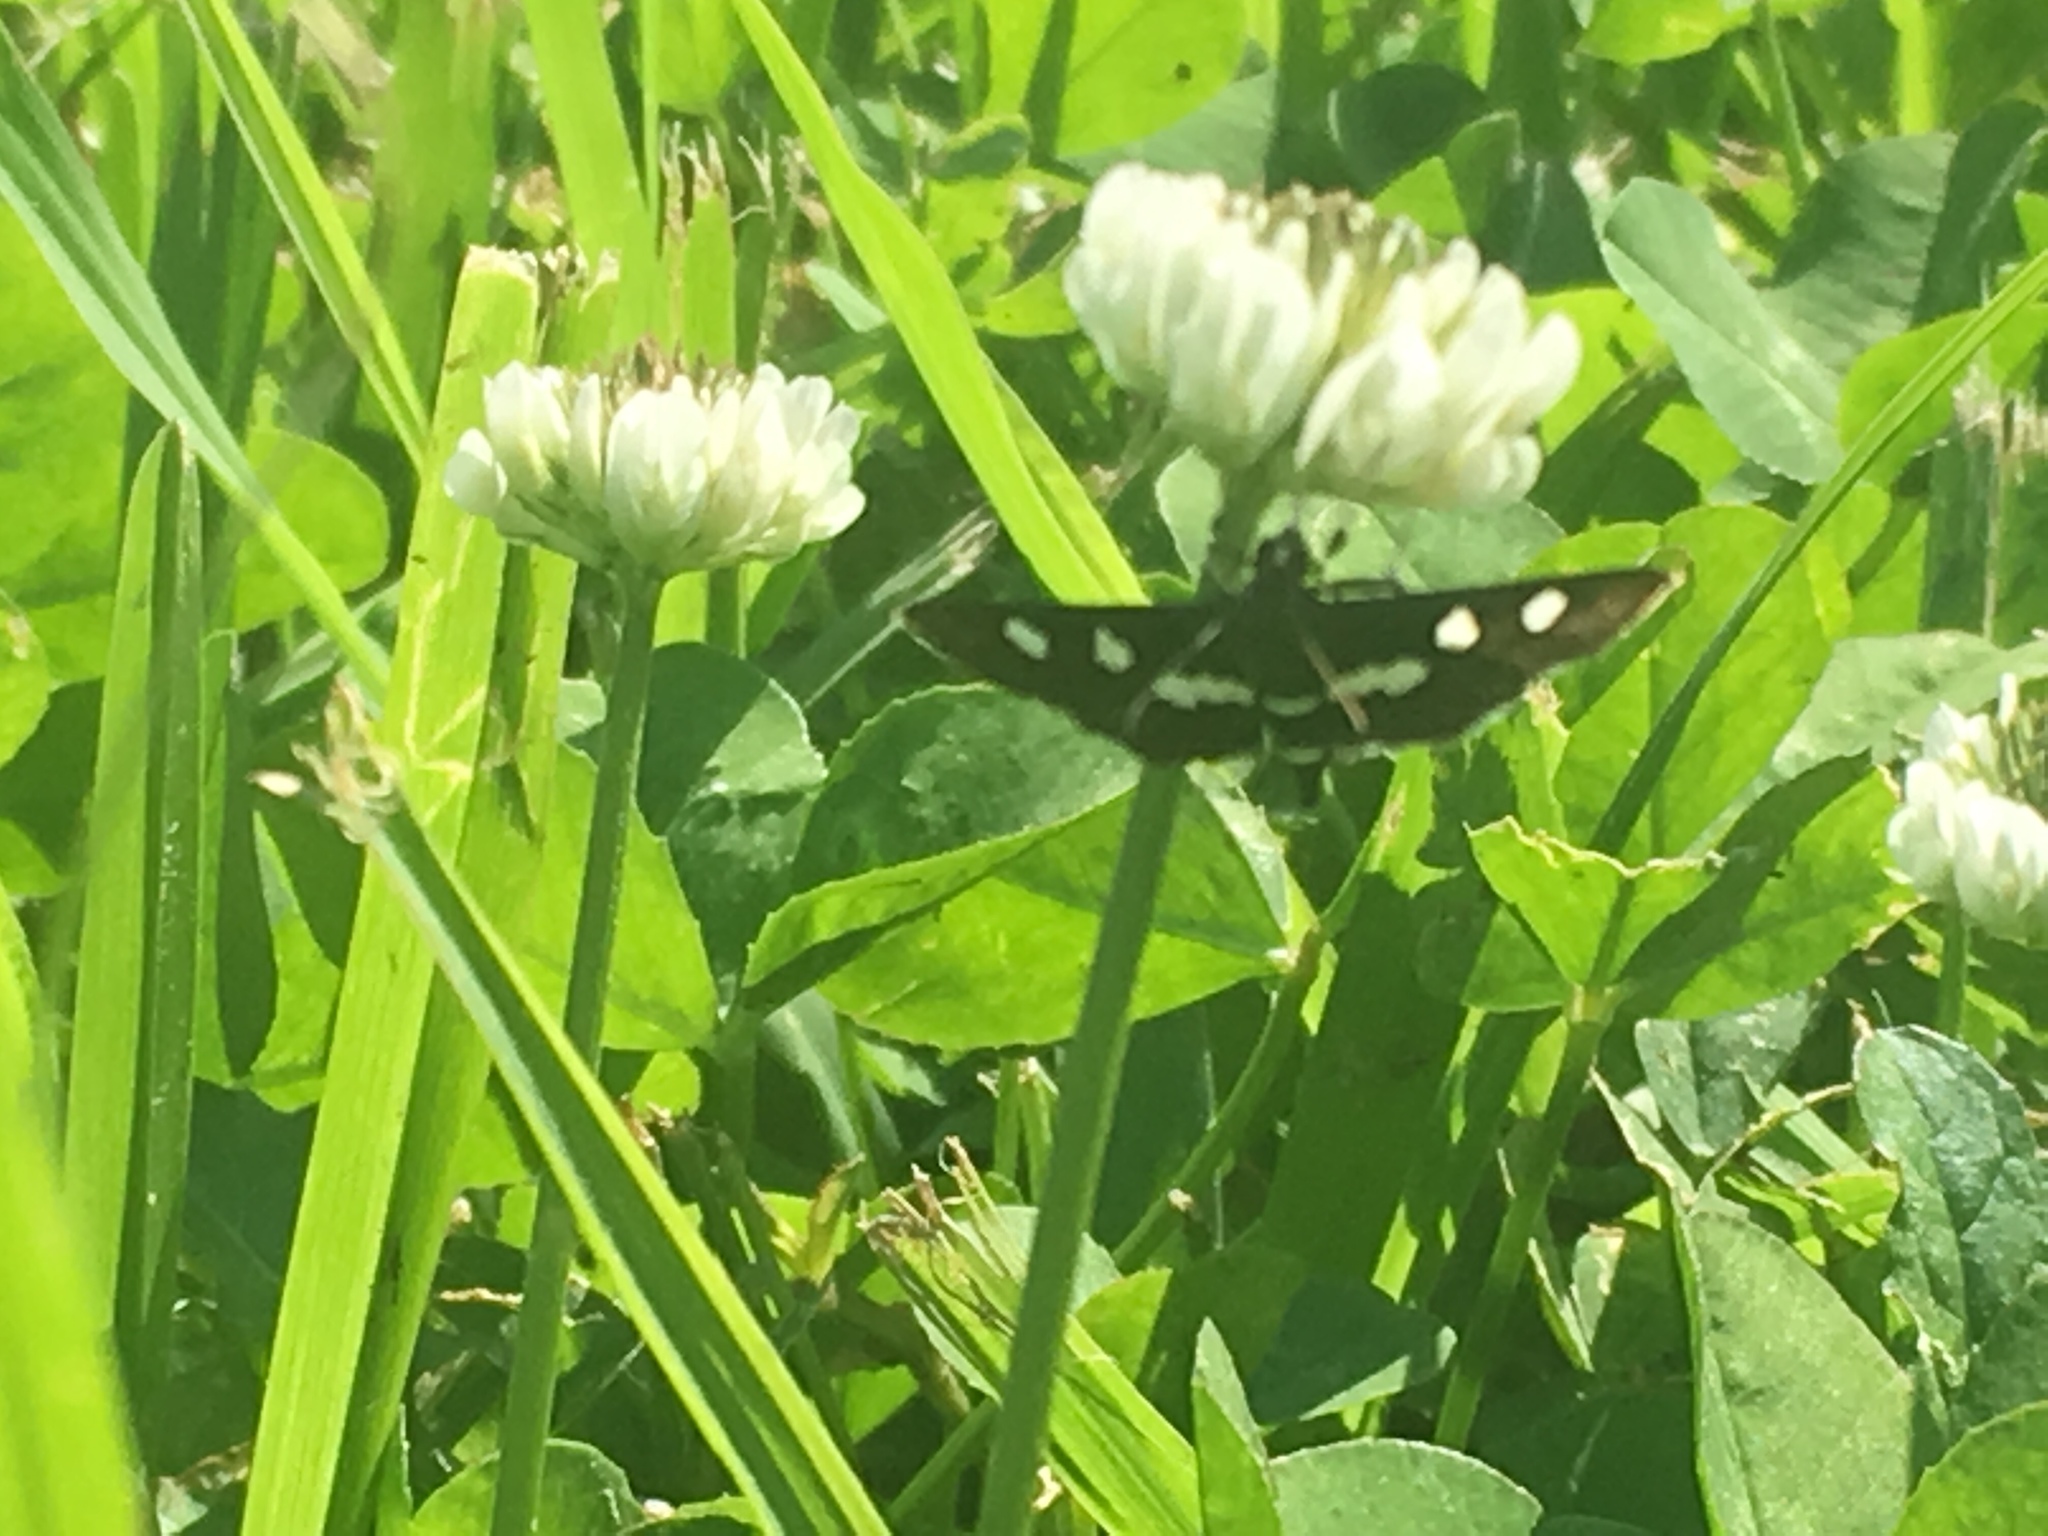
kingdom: Animalia
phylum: Arthropoda
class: Insecta
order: Lepidoptera
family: Crambidae
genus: Desmia
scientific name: Desmia
